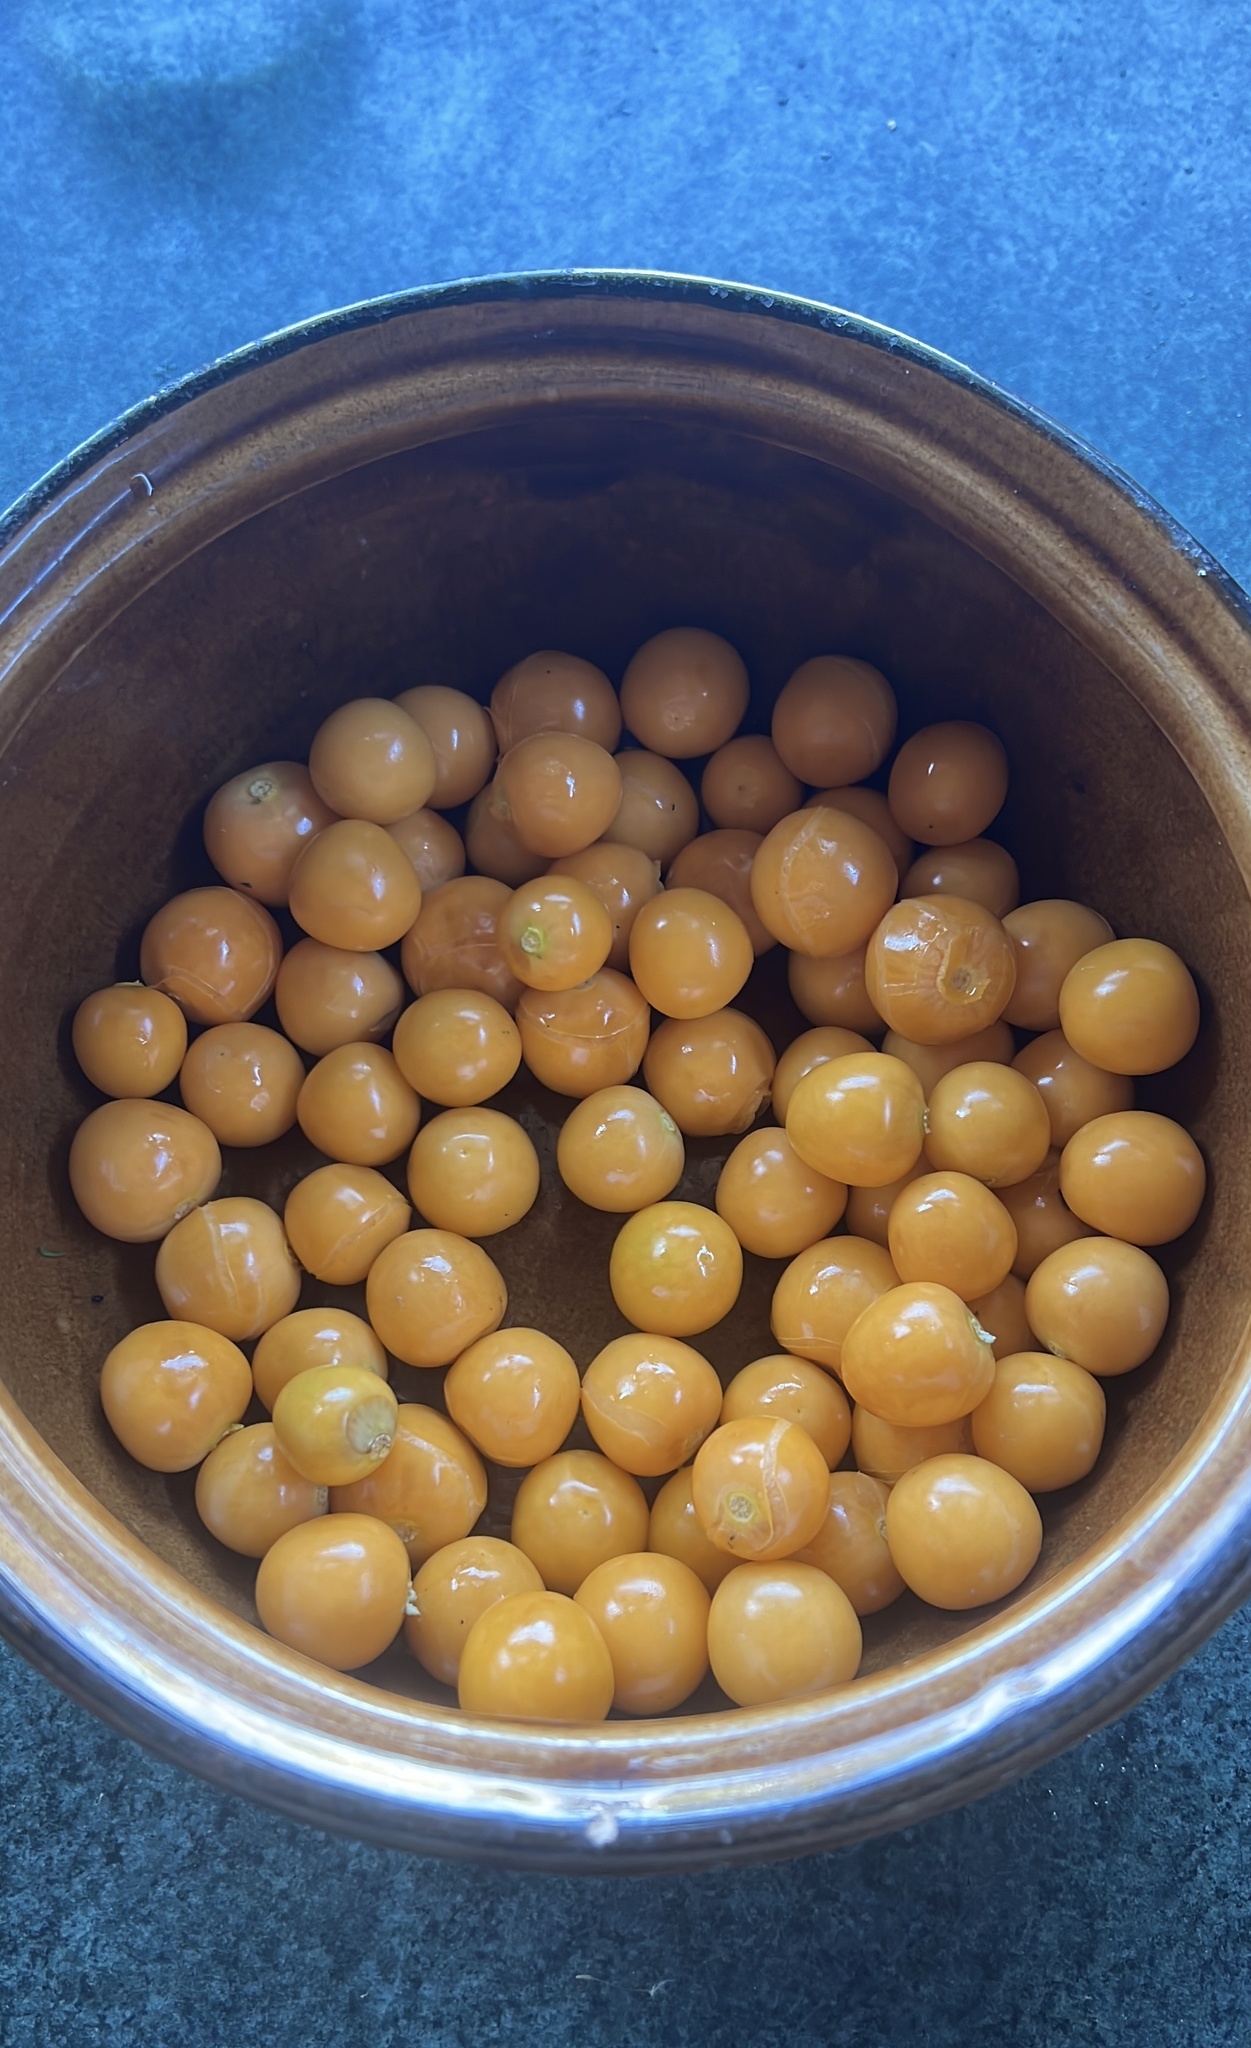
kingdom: Plantae
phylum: Tracheophyta
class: Magnoliopsida
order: Solanales
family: Solanaceae
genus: Physalis
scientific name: Physalis peruviana
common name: Cape-gooseberry
